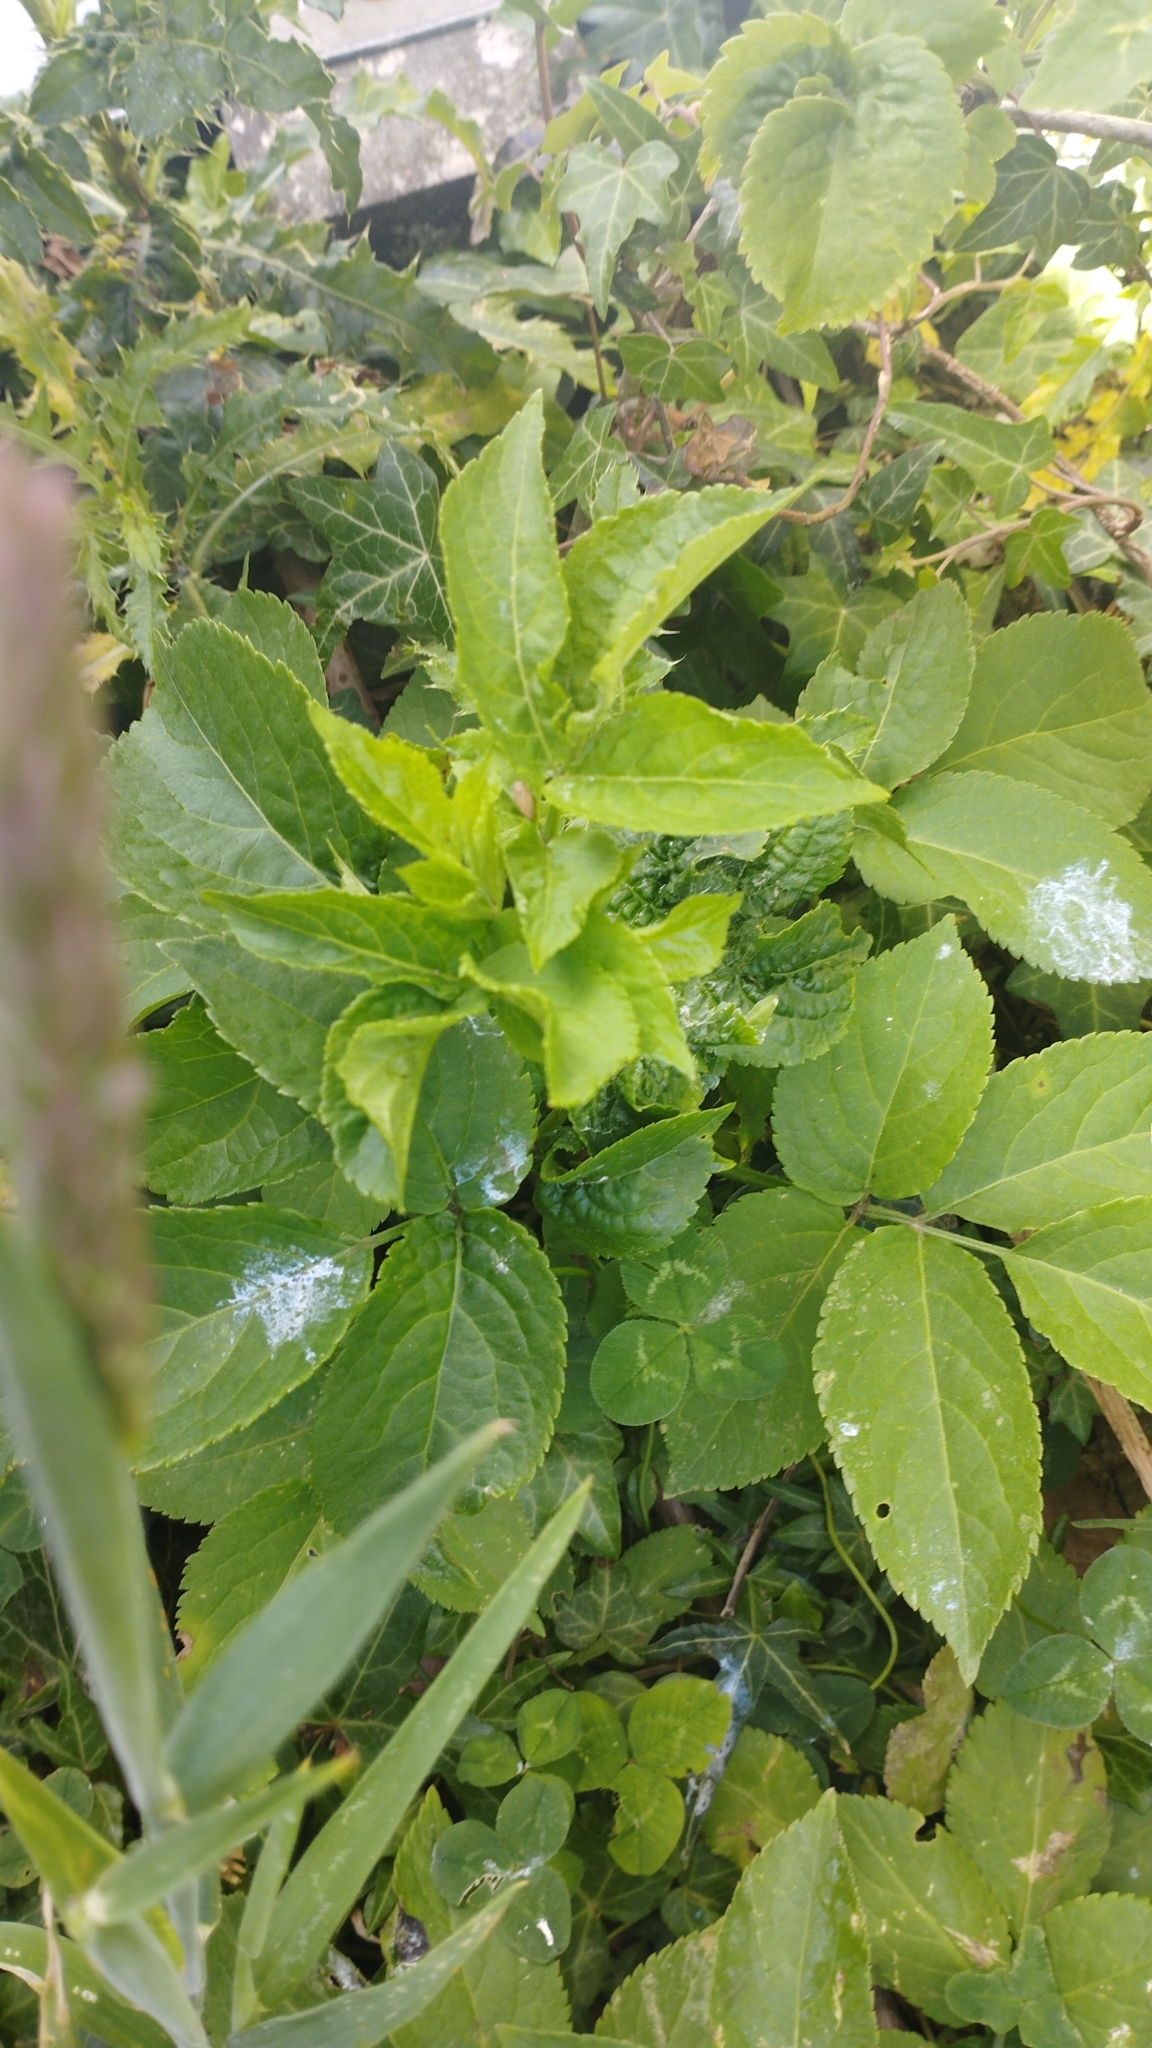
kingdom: Plantae
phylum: Tracheophyta
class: Magnoliopsida
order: Dipsacales
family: Viburnaceae
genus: Sambucus
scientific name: Sambucus nigra
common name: Elder
